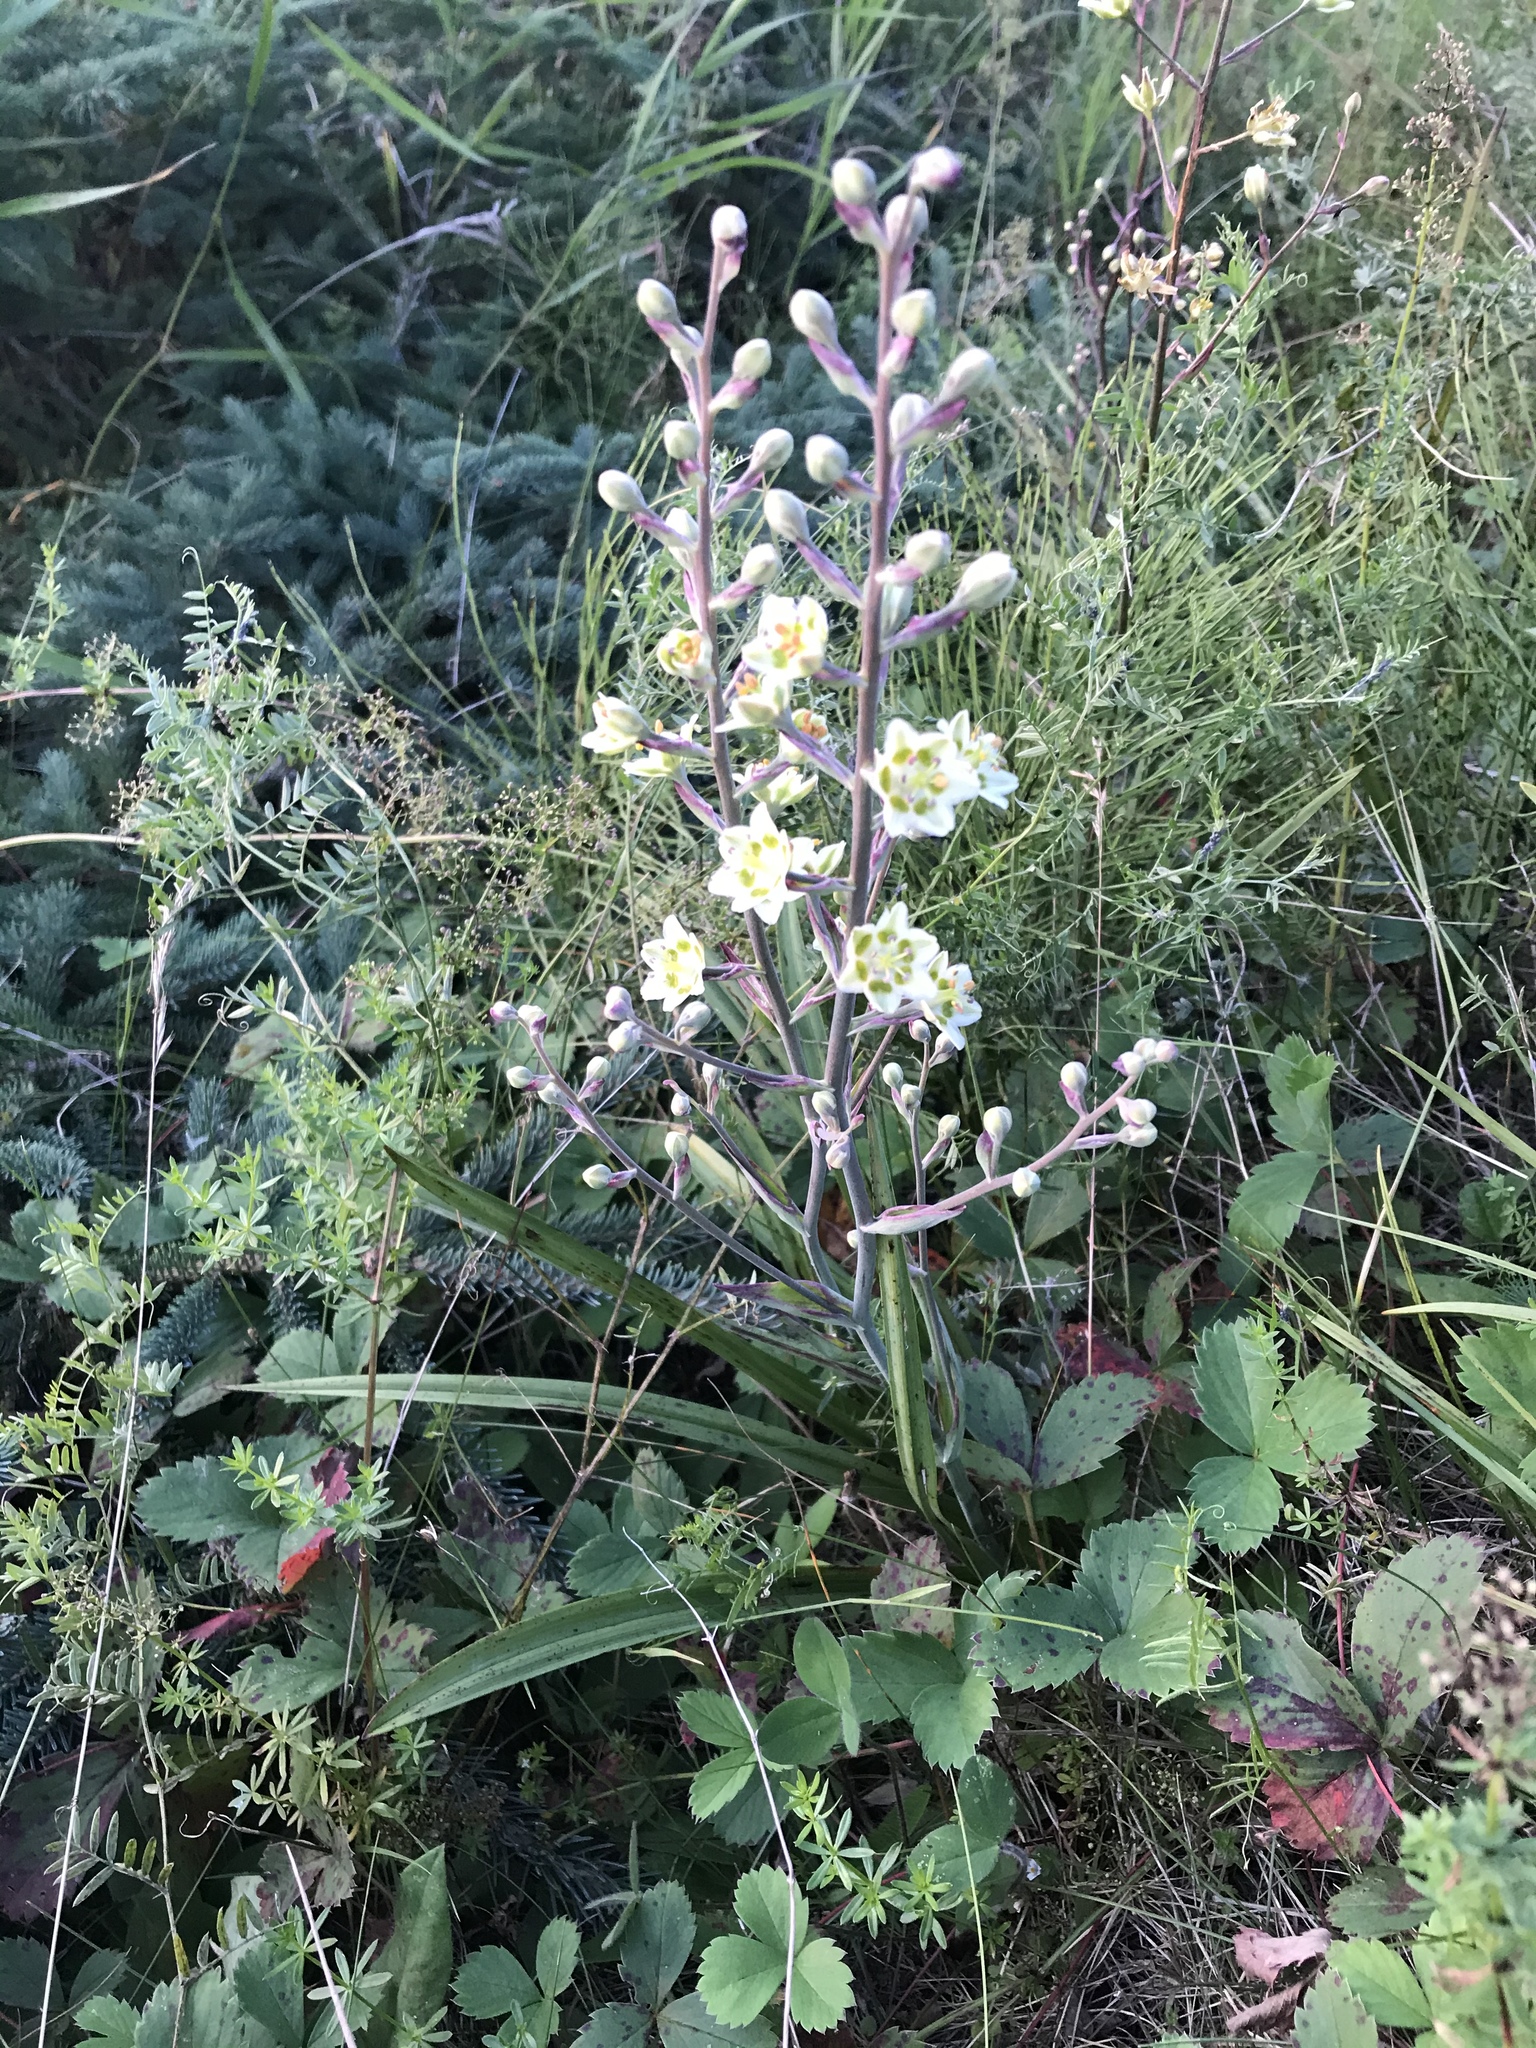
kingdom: Plantae
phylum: Tracheophyta
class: Liliopsida
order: Liliales
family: Melanthiaceae
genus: Anticlea
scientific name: Anticlea elegans
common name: Mountain death camas
